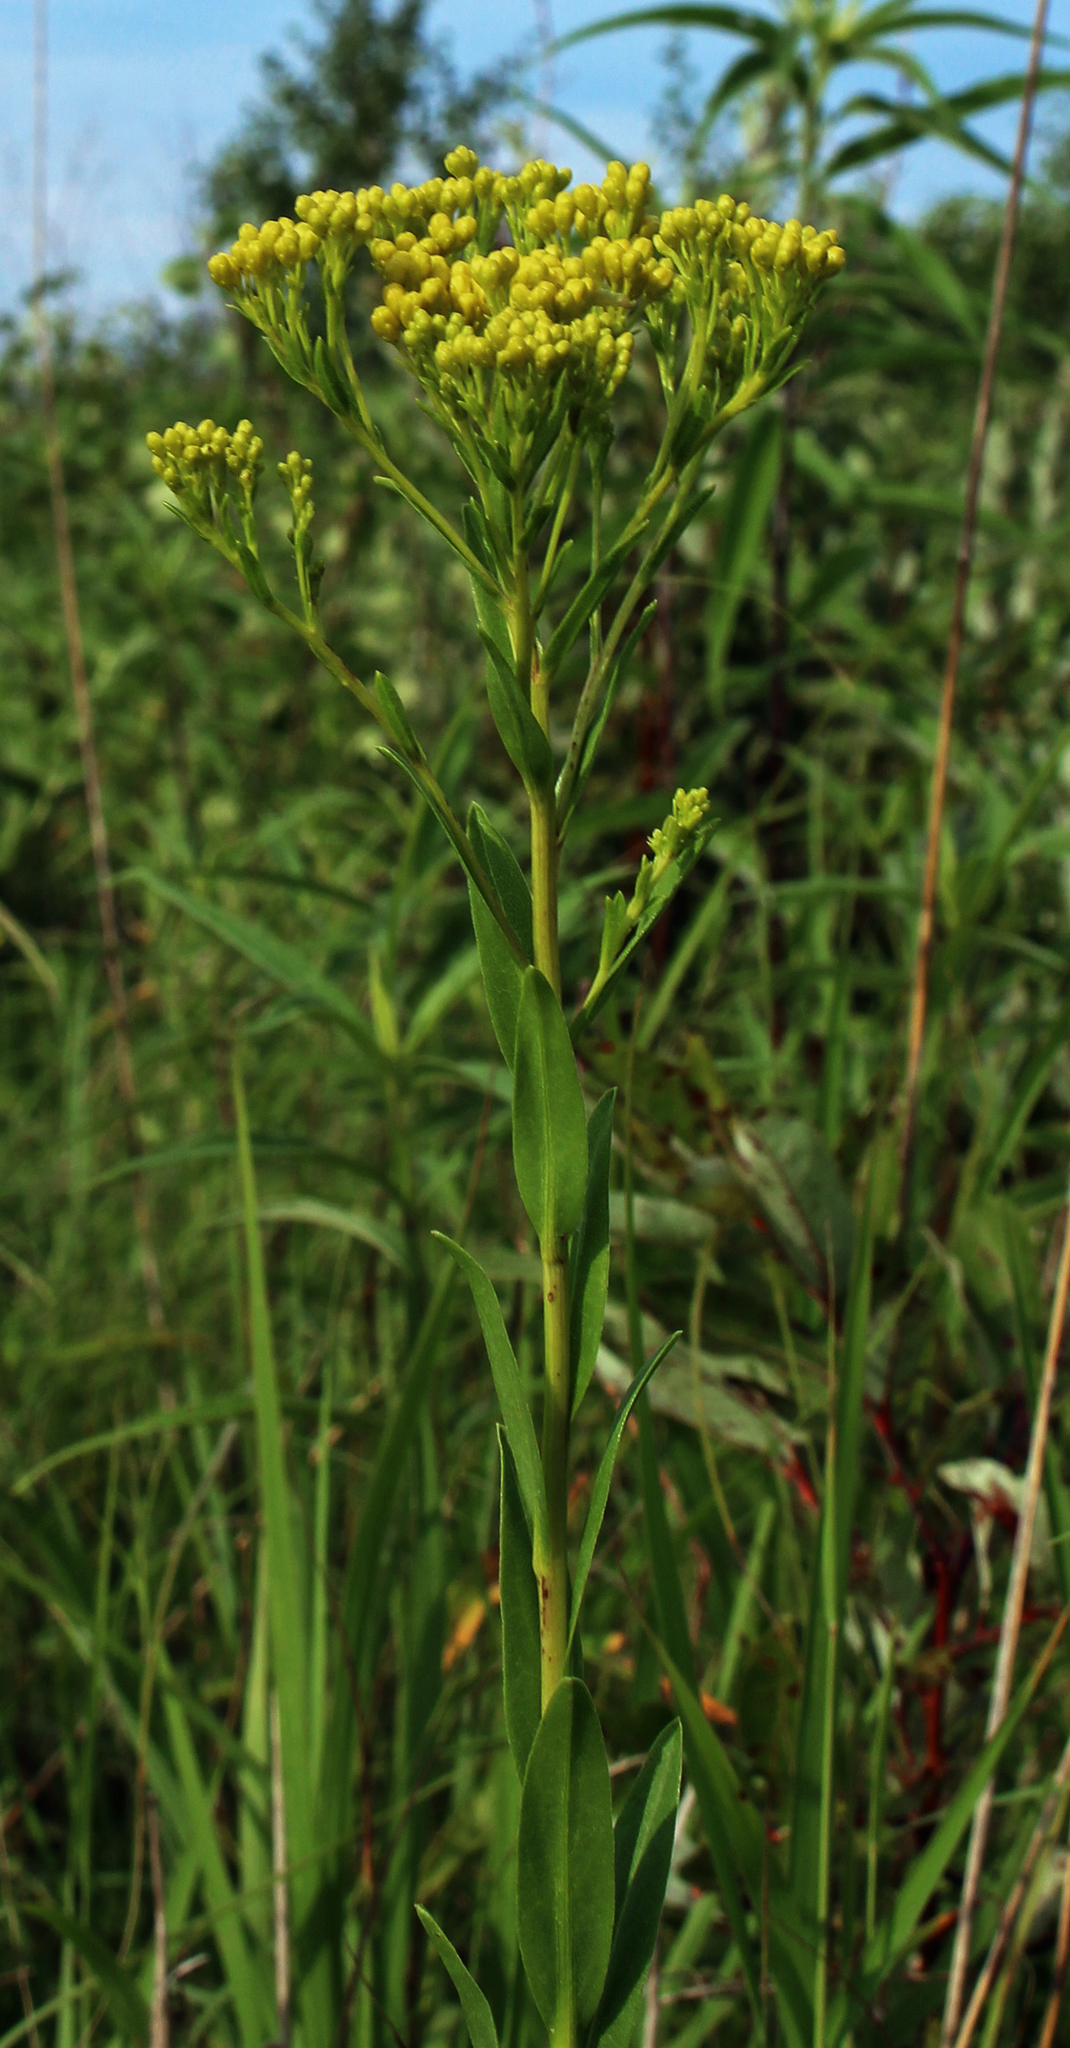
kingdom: Plantae
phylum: Tracheophyta
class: Magnoliopsida
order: Asterales
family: Asteraceae
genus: Solidago
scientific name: Solidago ohioensis
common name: Ohio goldenrod
